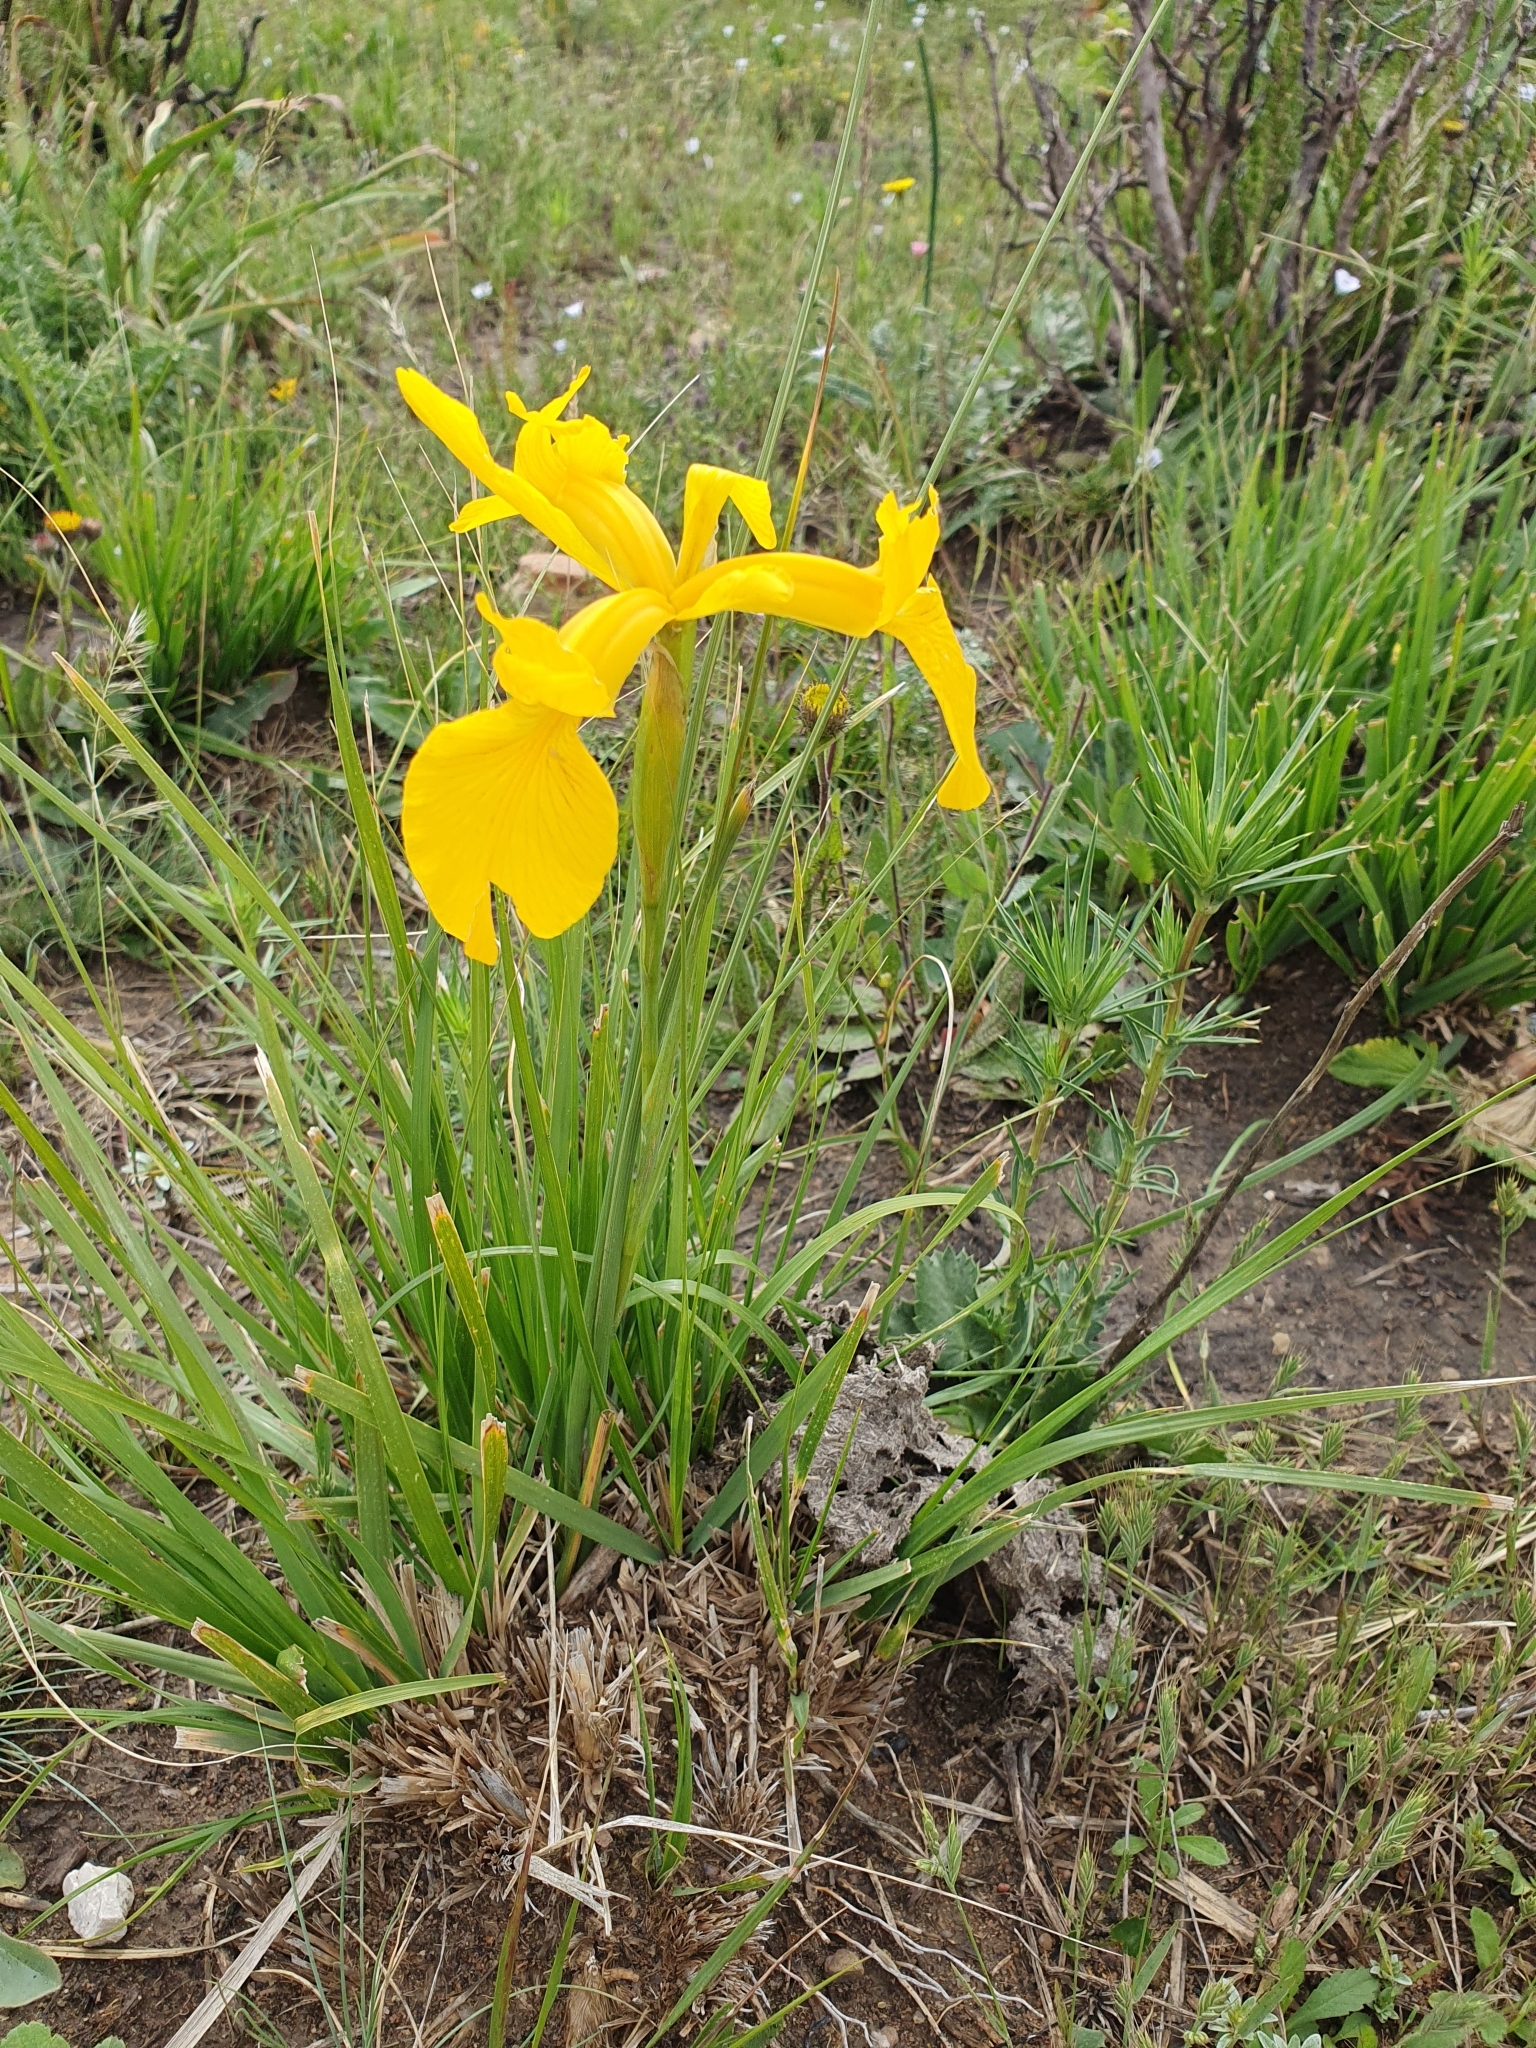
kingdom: Plantae
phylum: Tracheophyta
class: Liliopsida
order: Asparagales
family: Iridaceae
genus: Iris
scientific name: Iris juncea
